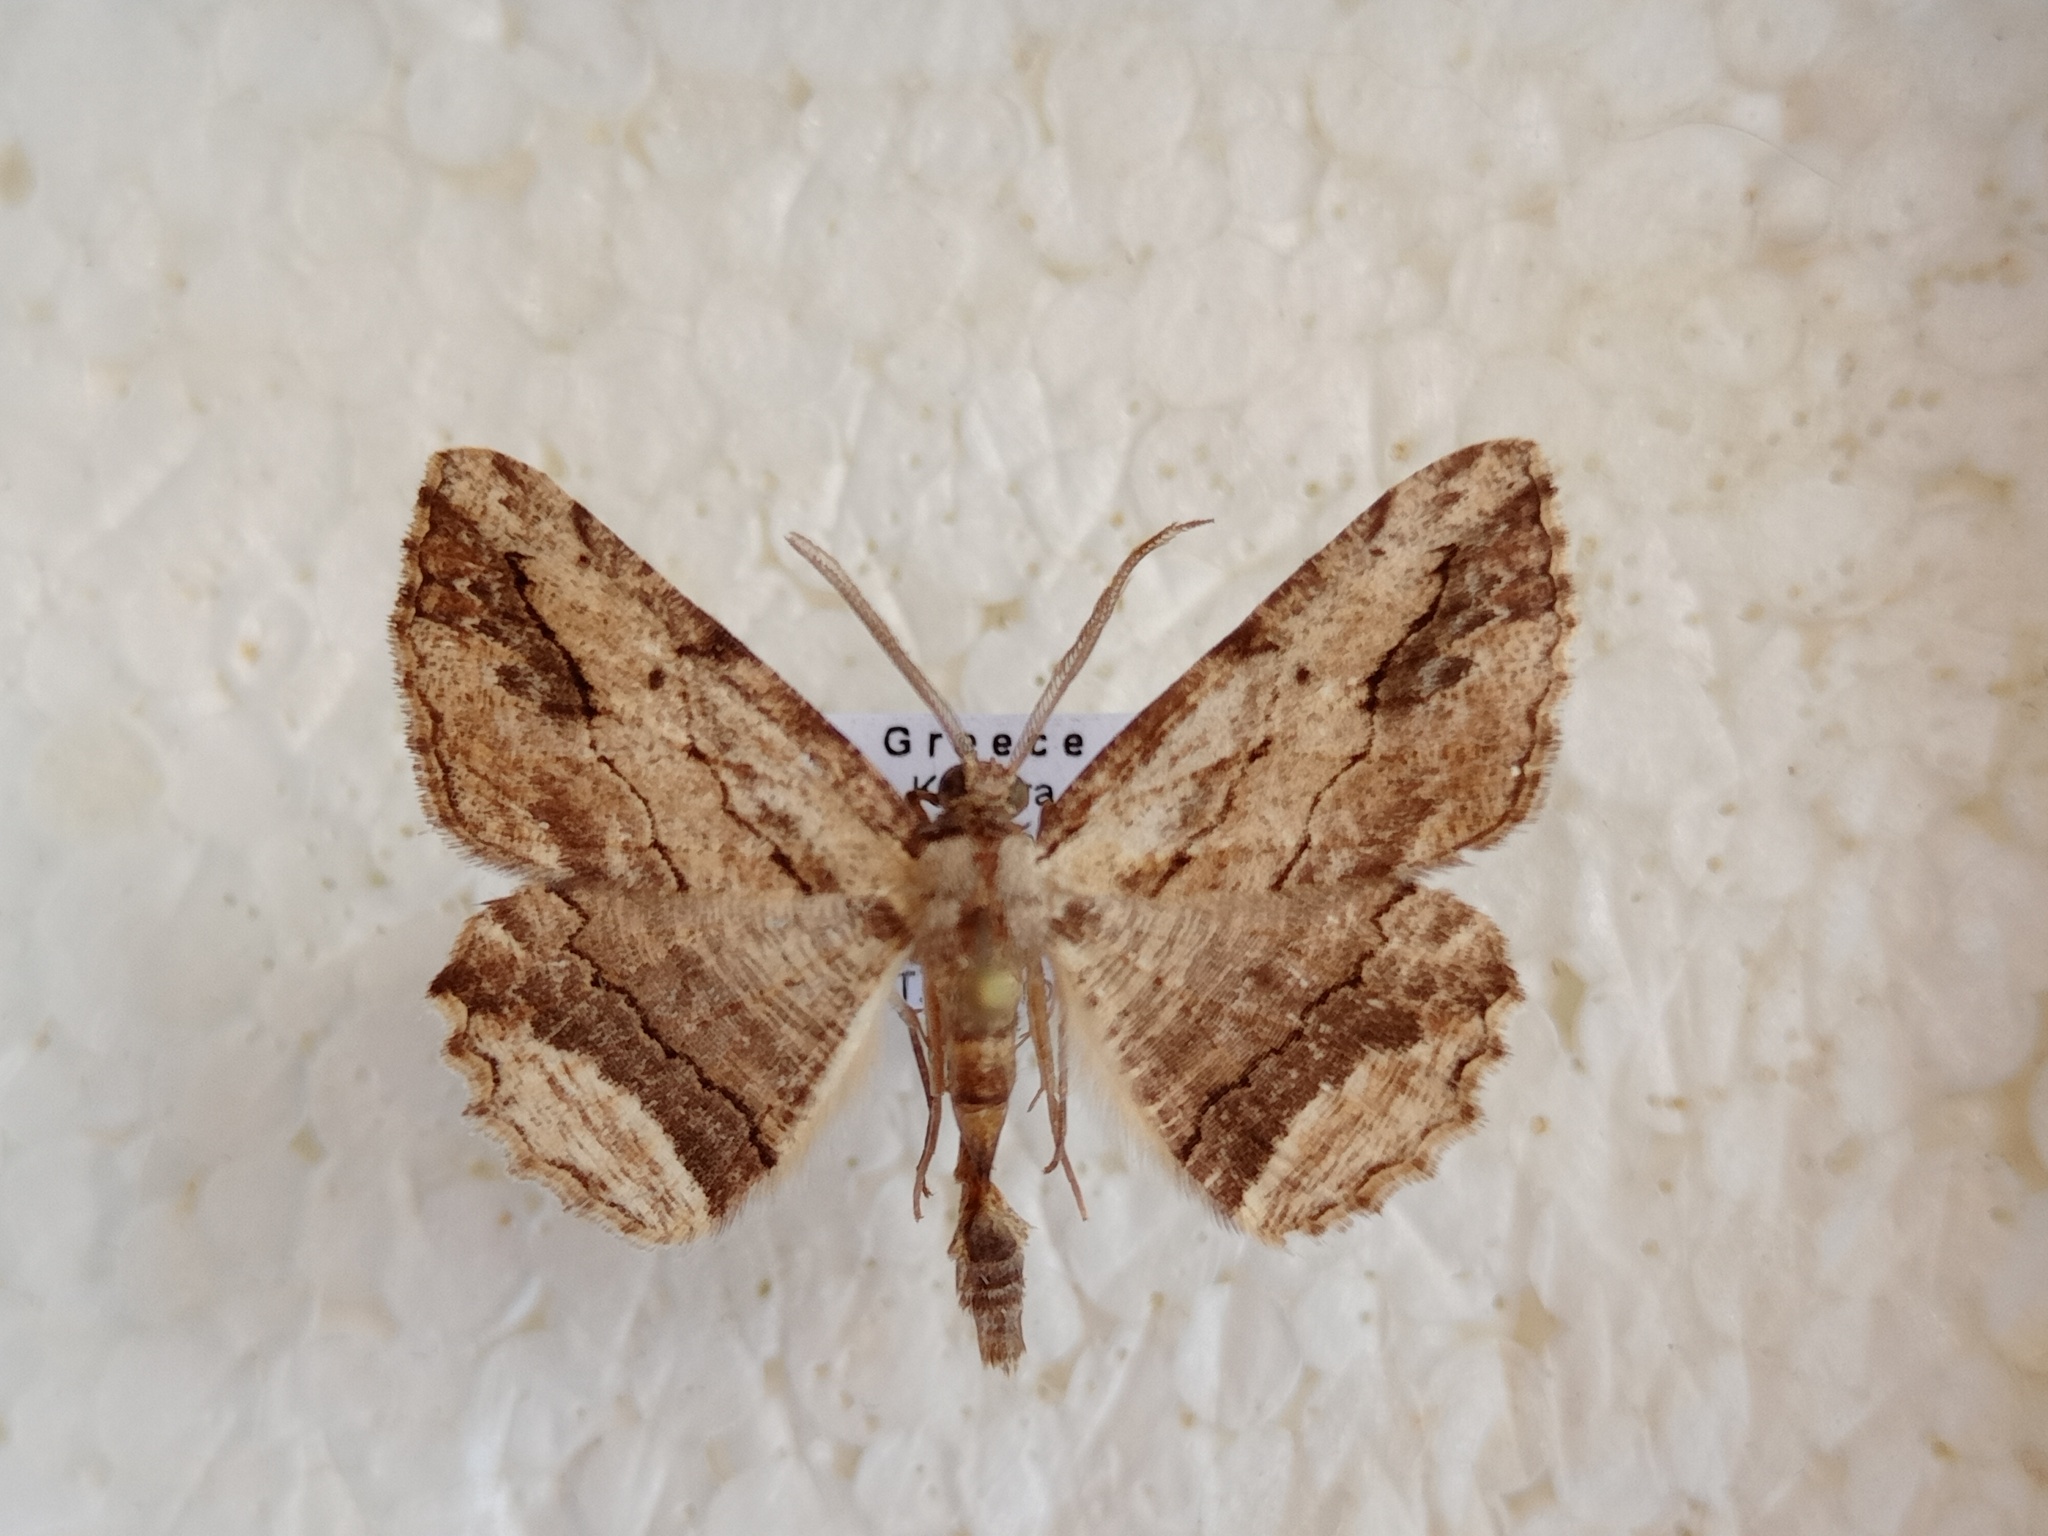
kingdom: Animalia
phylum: Arthropoda
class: Insecta
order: Lepidoptera
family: Geometridae
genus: Menophra
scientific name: Menophra abruptaria
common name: Waved umber
